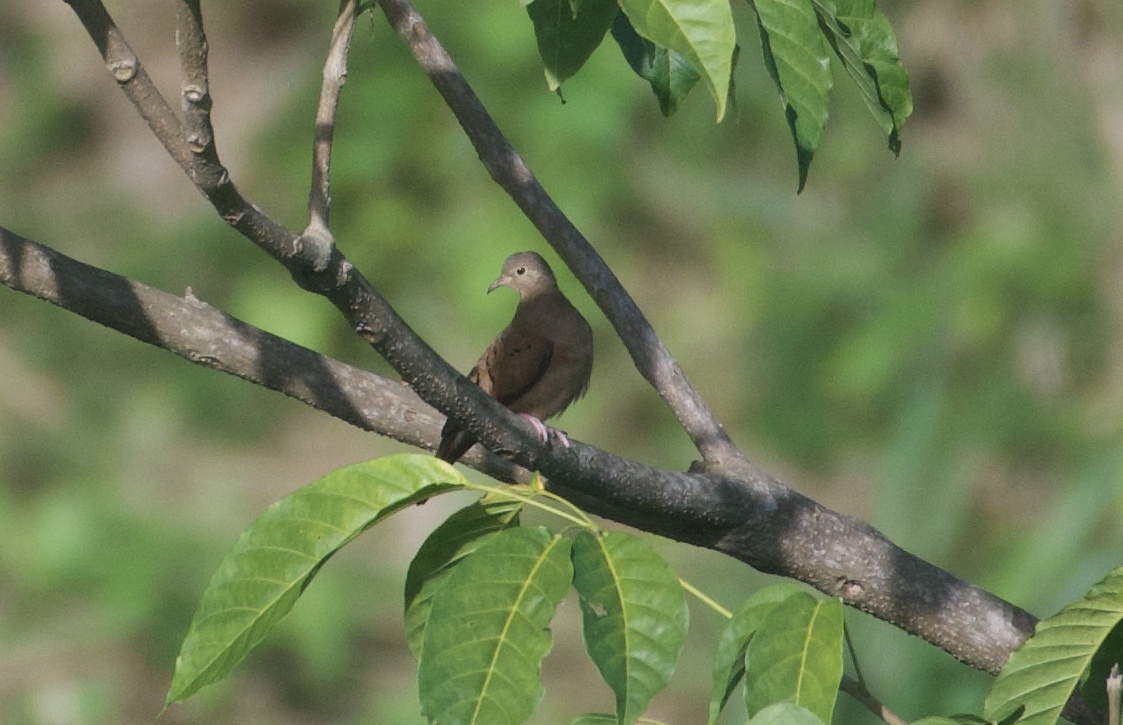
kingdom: Animalia
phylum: Chordata
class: Aves
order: Columbiformes
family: Columbidae
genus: Columbina
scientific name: Columbina talpacoti
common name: Ruddy ground dove
